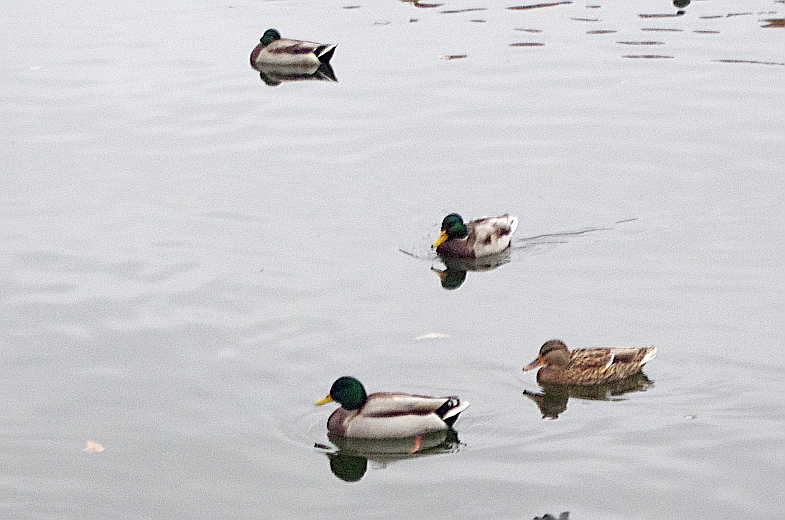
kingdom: Animalia
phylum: Chordata
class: Aves
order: Anseriformes
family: Anatidae
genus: Anas
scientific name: Anas platyrhynchos
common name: Mallard
